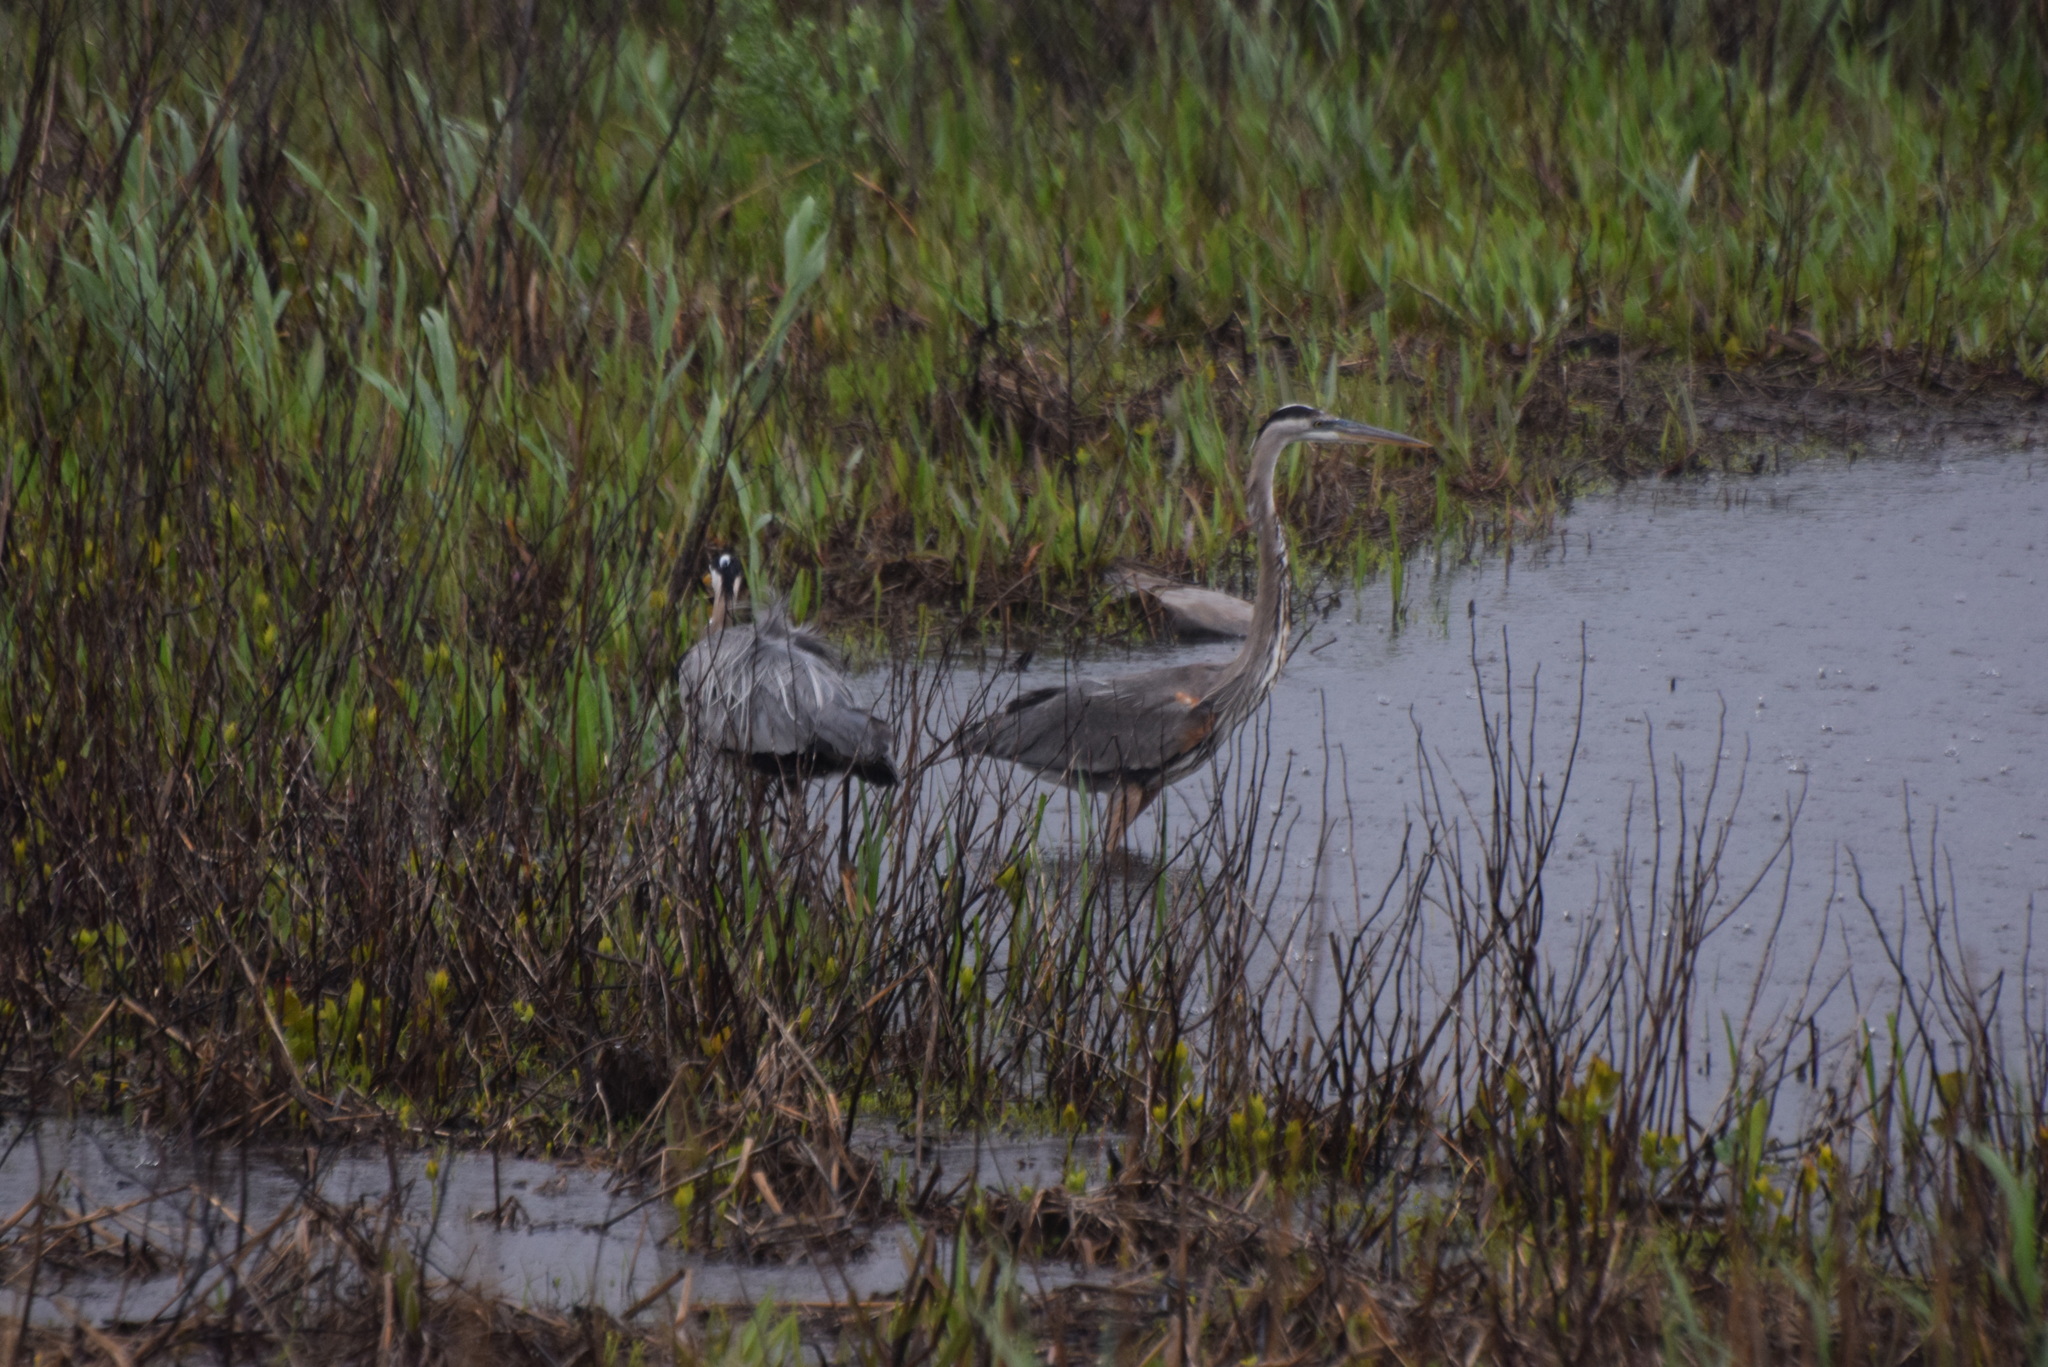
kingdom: Animalia
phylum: Chordata
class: Aves
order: Pelecaniformes
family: Ardeidae
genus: Ardea
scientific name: Ardea herodias
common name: Great blue heron
